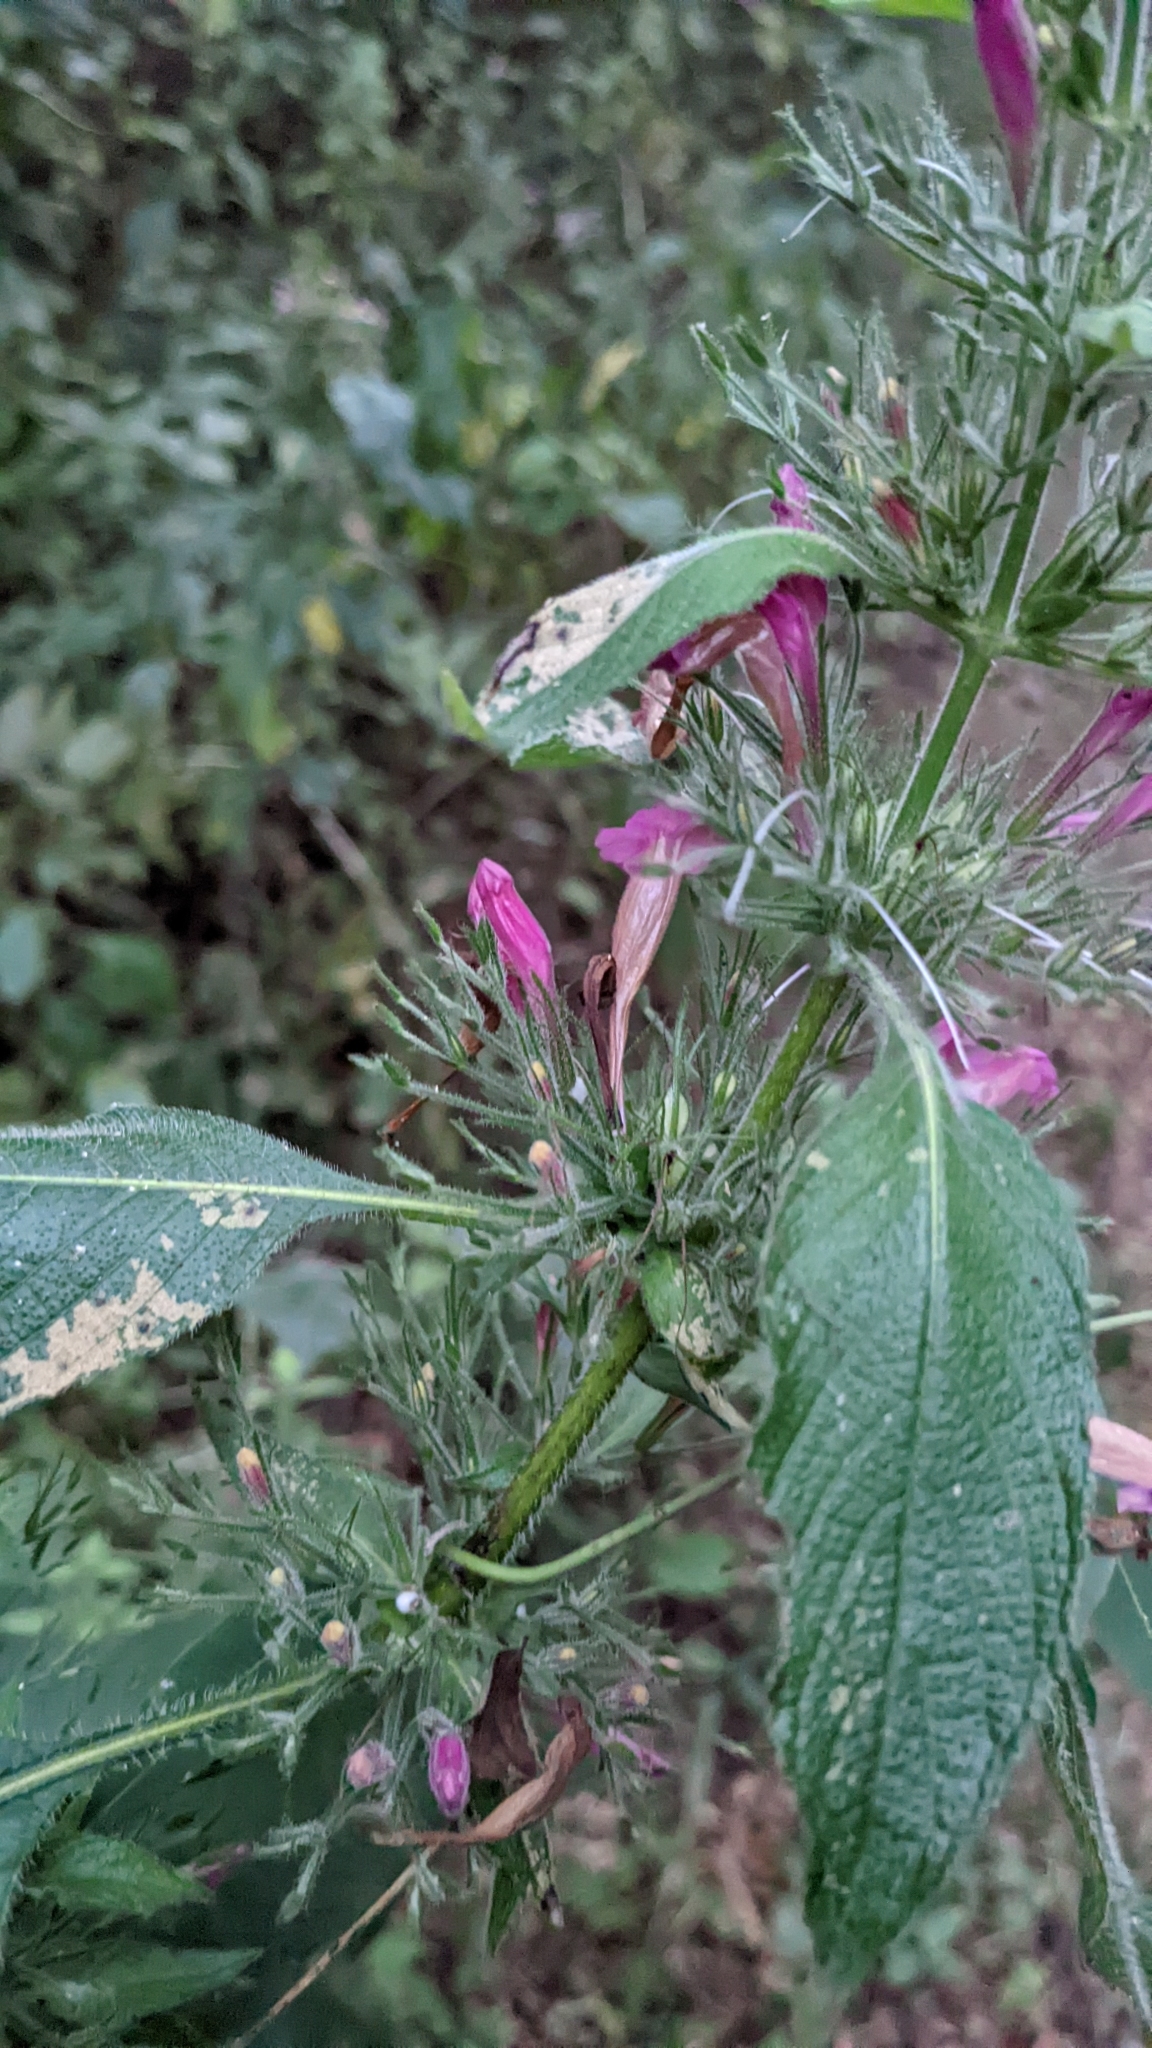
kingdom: Plantae
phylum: Tracheophyta
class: Magnoliopsida
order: Lamiales
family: Acanthaceae
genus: Ruellia
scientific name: Ruellia inundata
